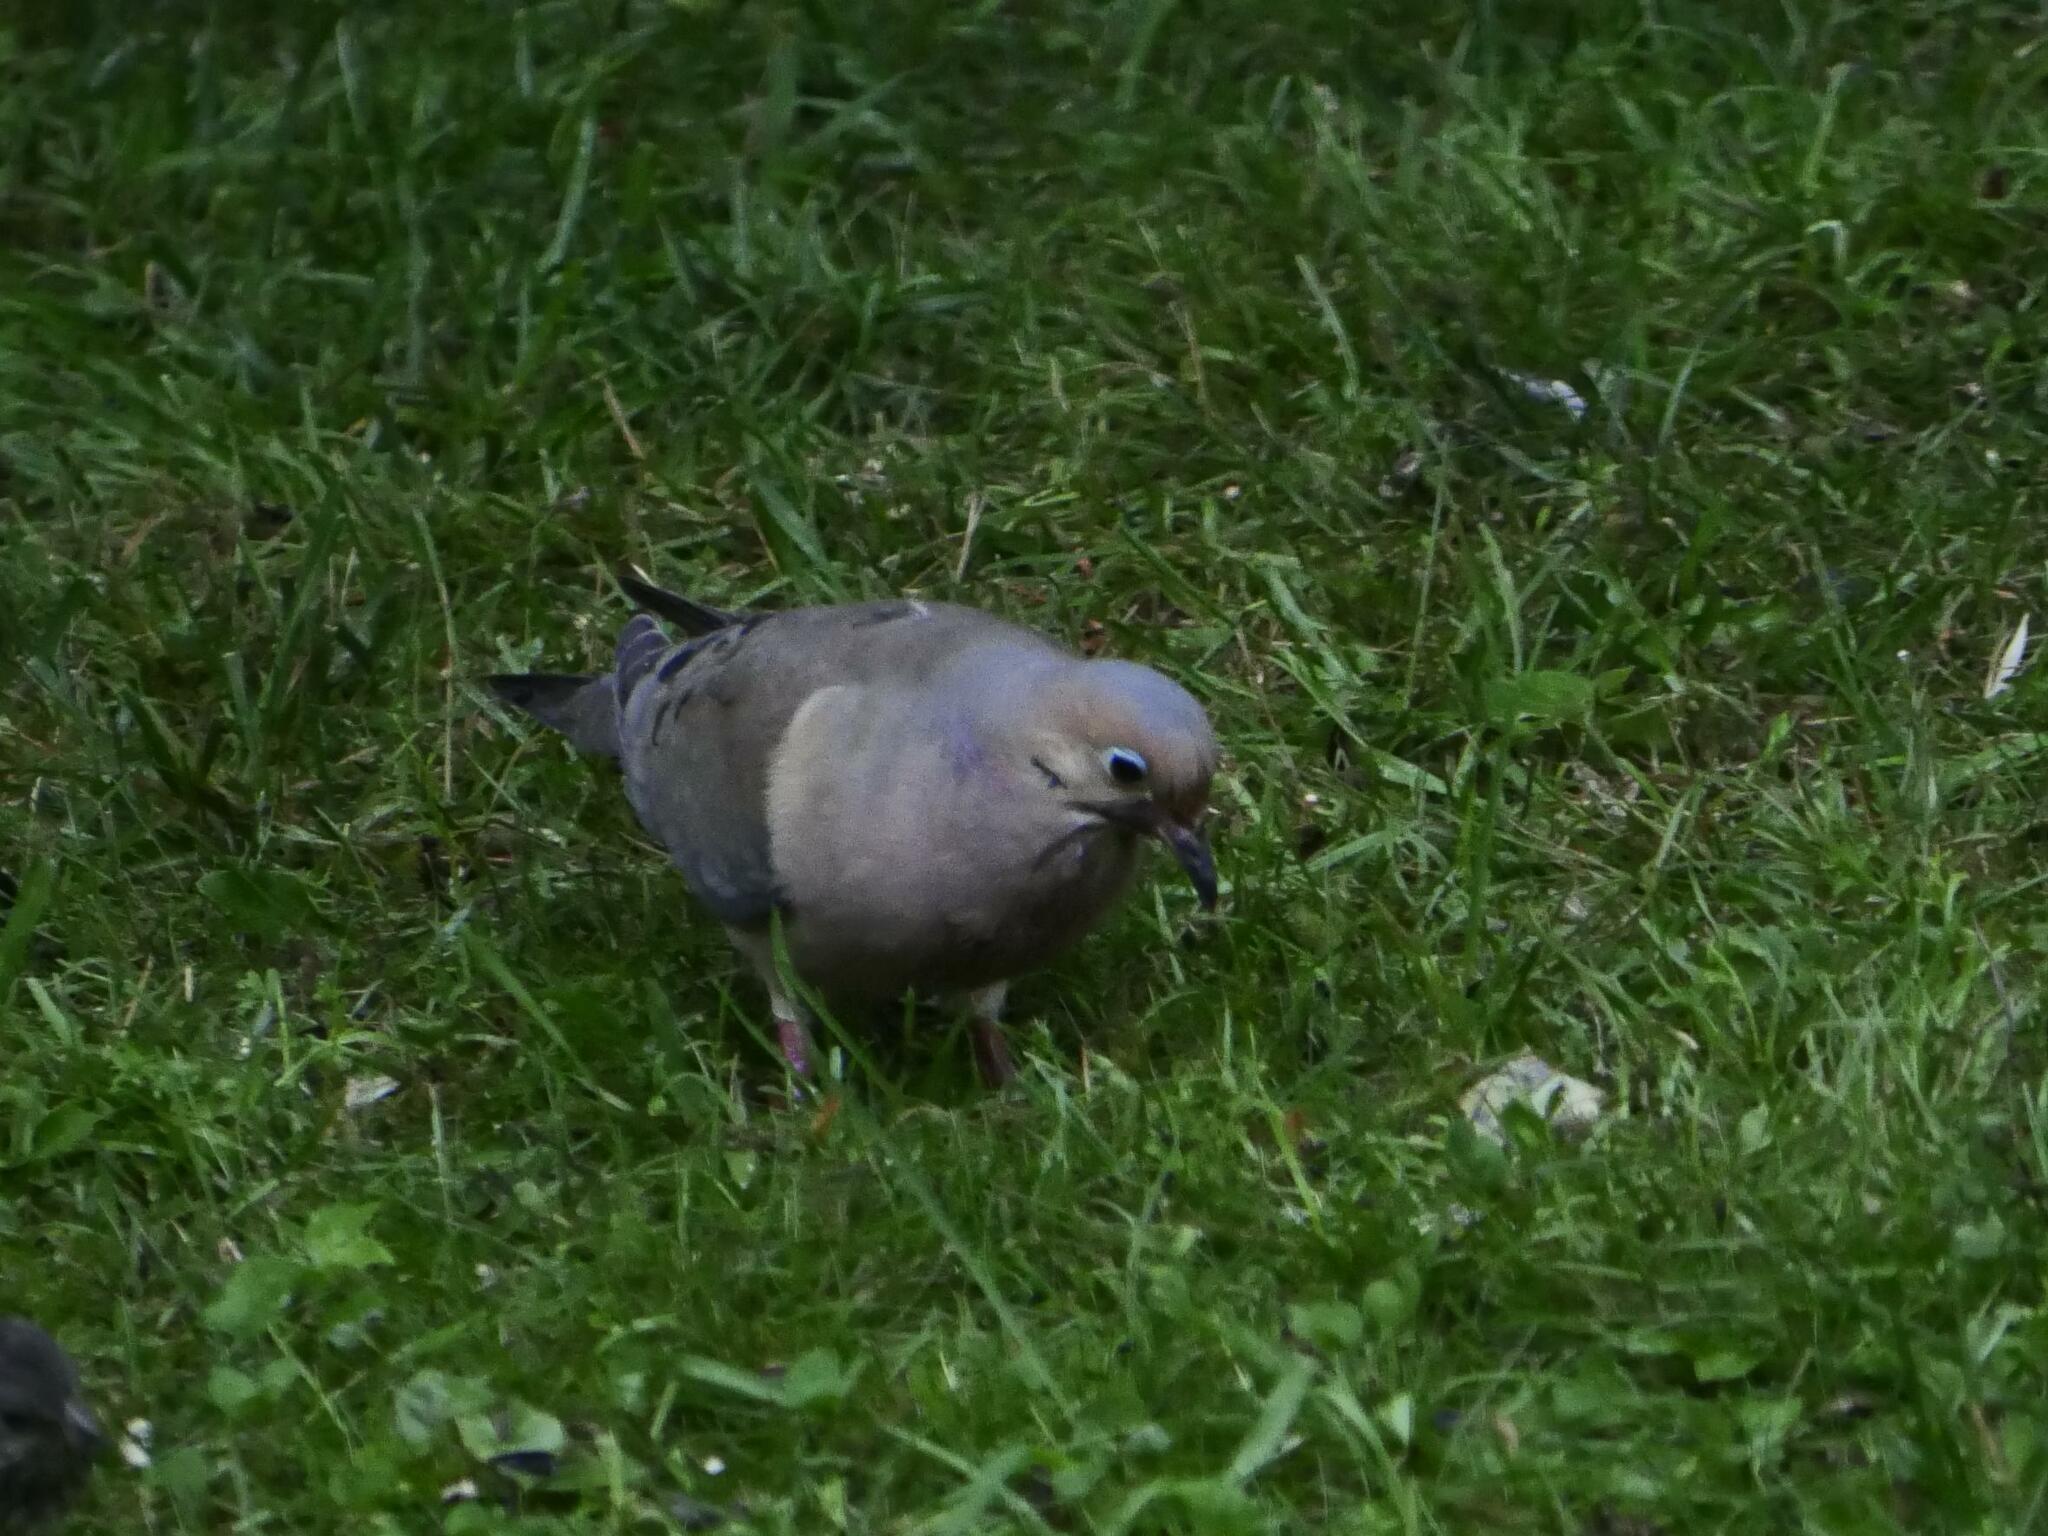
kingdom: Animalia
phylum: Chordata
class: Aves
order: Columbiformes
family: Columbidae
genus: Zenaida
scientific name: Zenaida macroura
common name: Mourning dove
